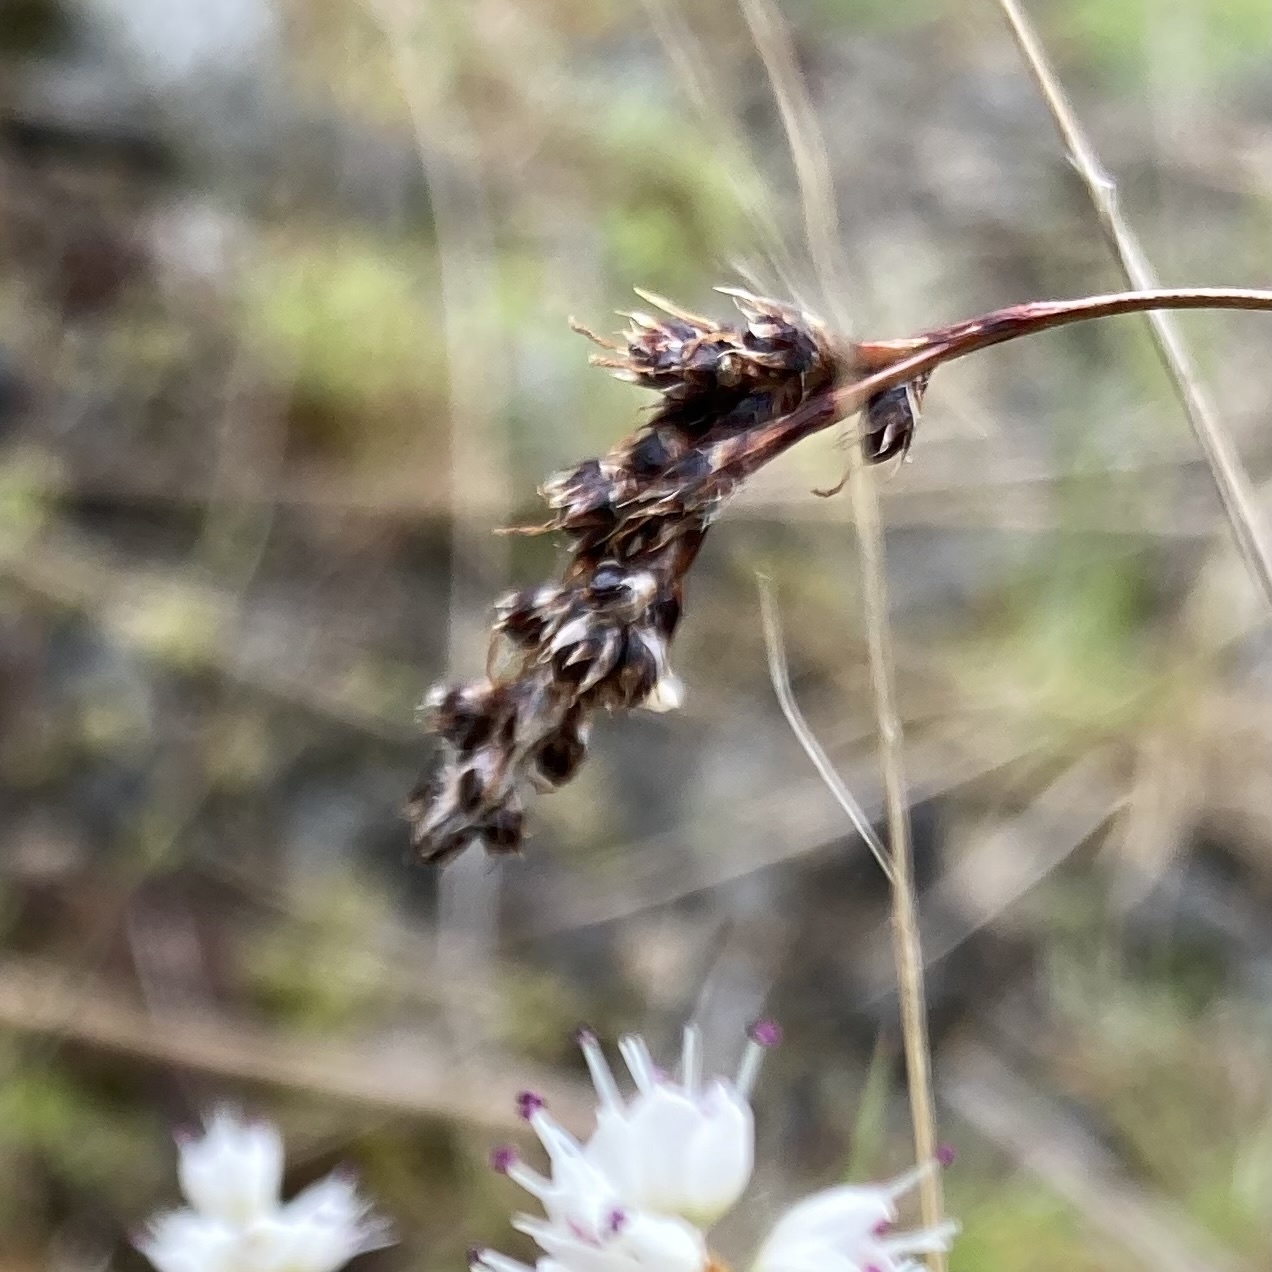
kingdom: Plantae
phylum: Tracheophyta
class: Liliopsida
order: Poales
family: Juncaceae
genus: Luzula
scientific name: Luzula spicata
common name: Spiked wood-rush
